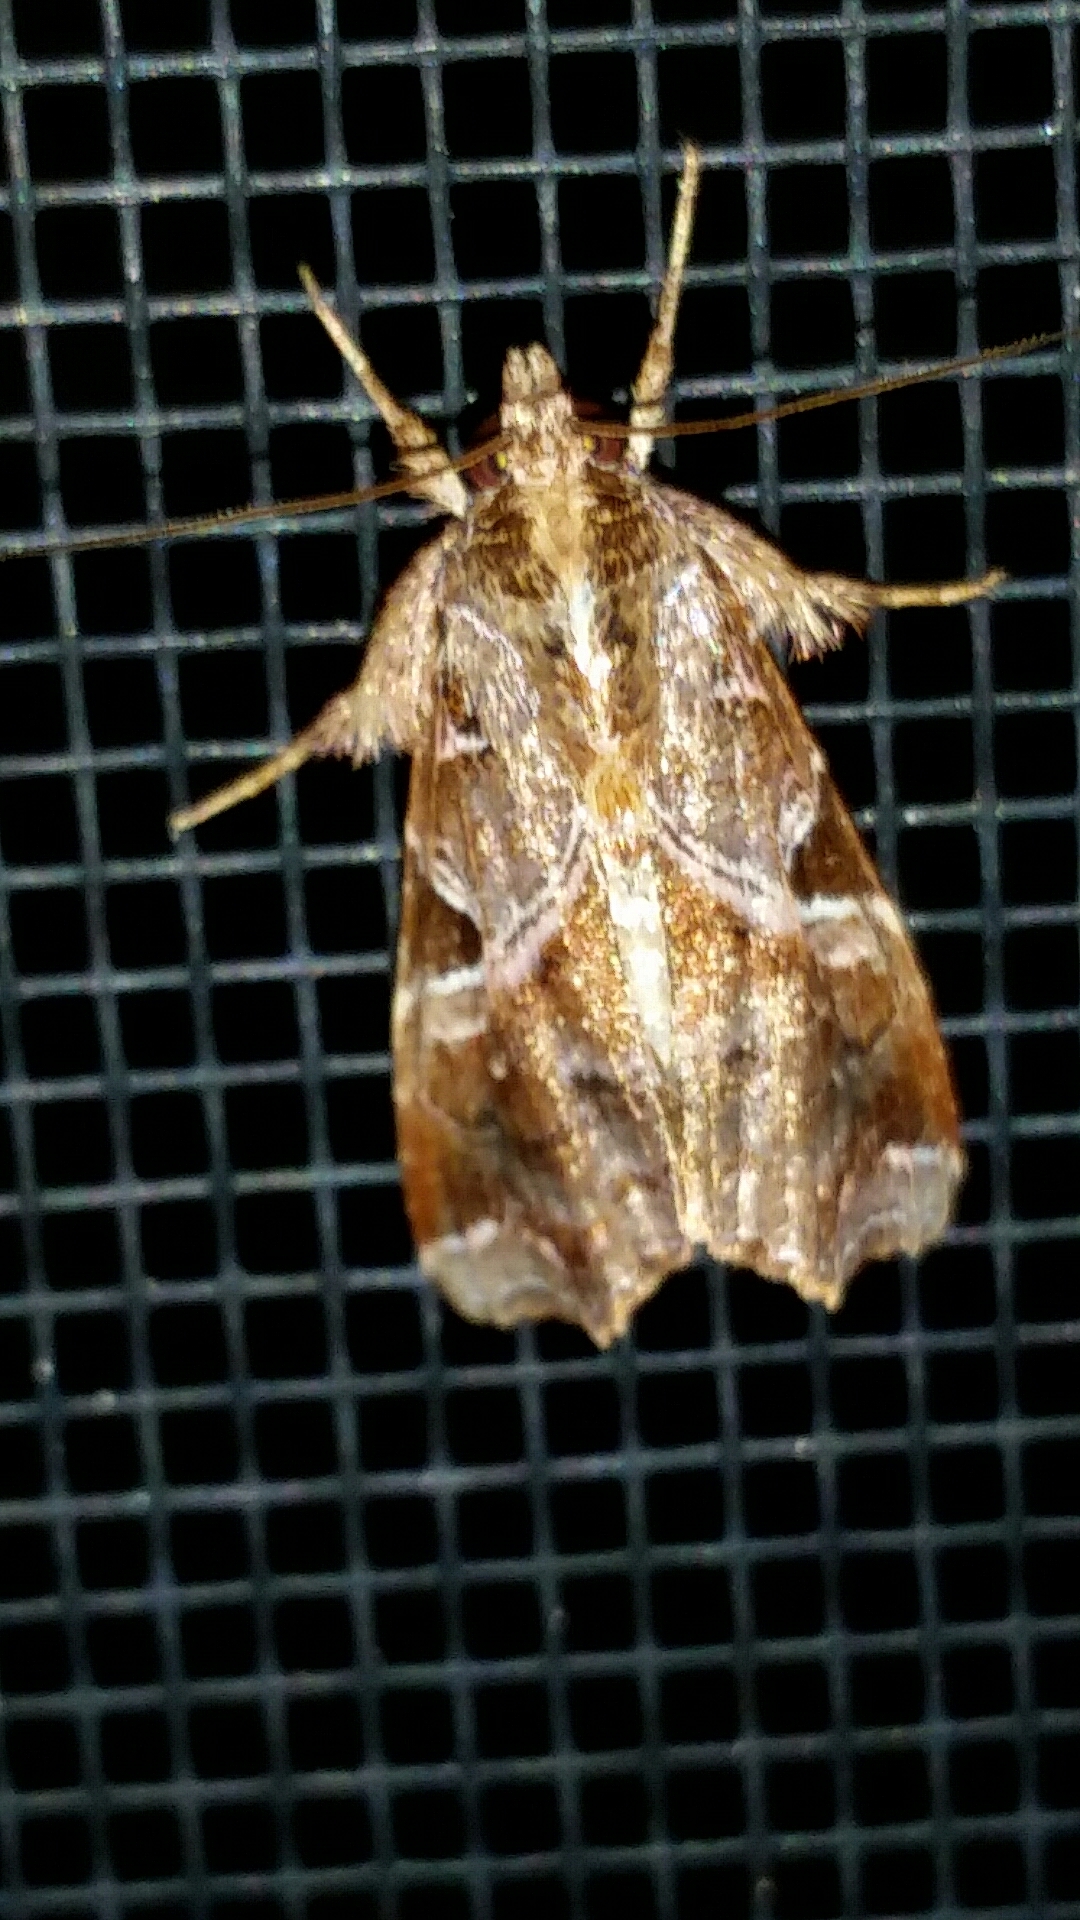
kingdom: Animalia
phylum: Arthropoda
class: Insecta
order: Lepidoptera
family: Noctuidae
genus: Callopistria
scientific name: Callopistria floridensis
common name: Florida fern moth
